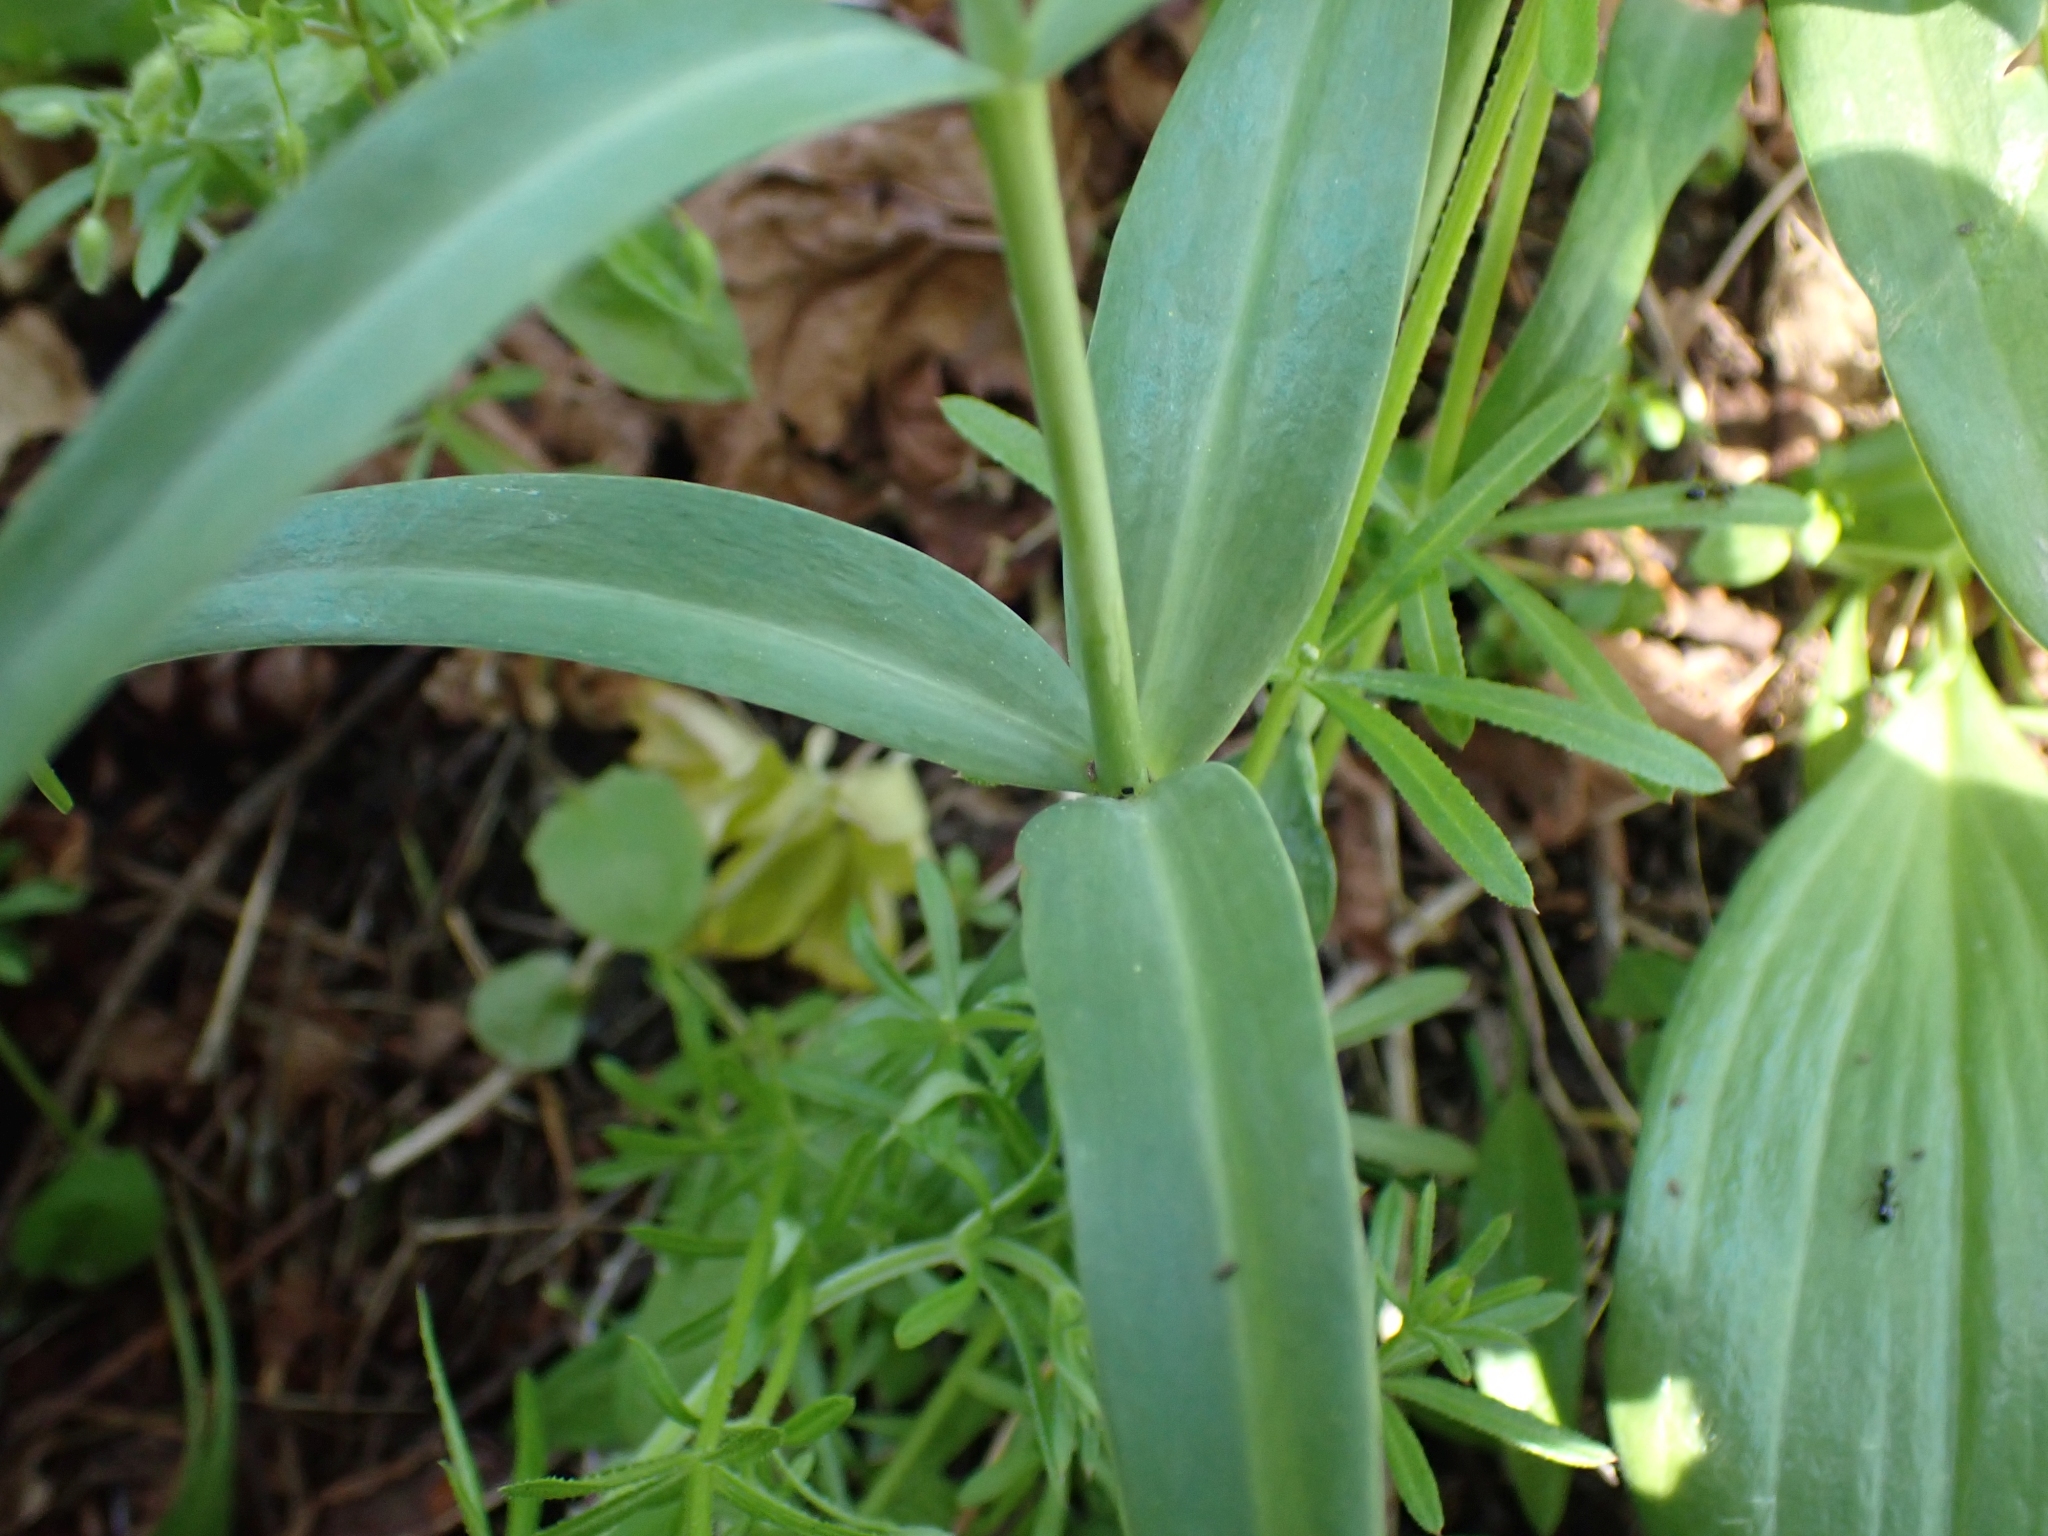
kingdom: Plantae
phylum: Tracheophyta
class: Liliopsida
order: Liliales
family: Liliaceae
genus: Fritillaria
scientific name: Fritillaria affinis
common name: Ojai fritillary
